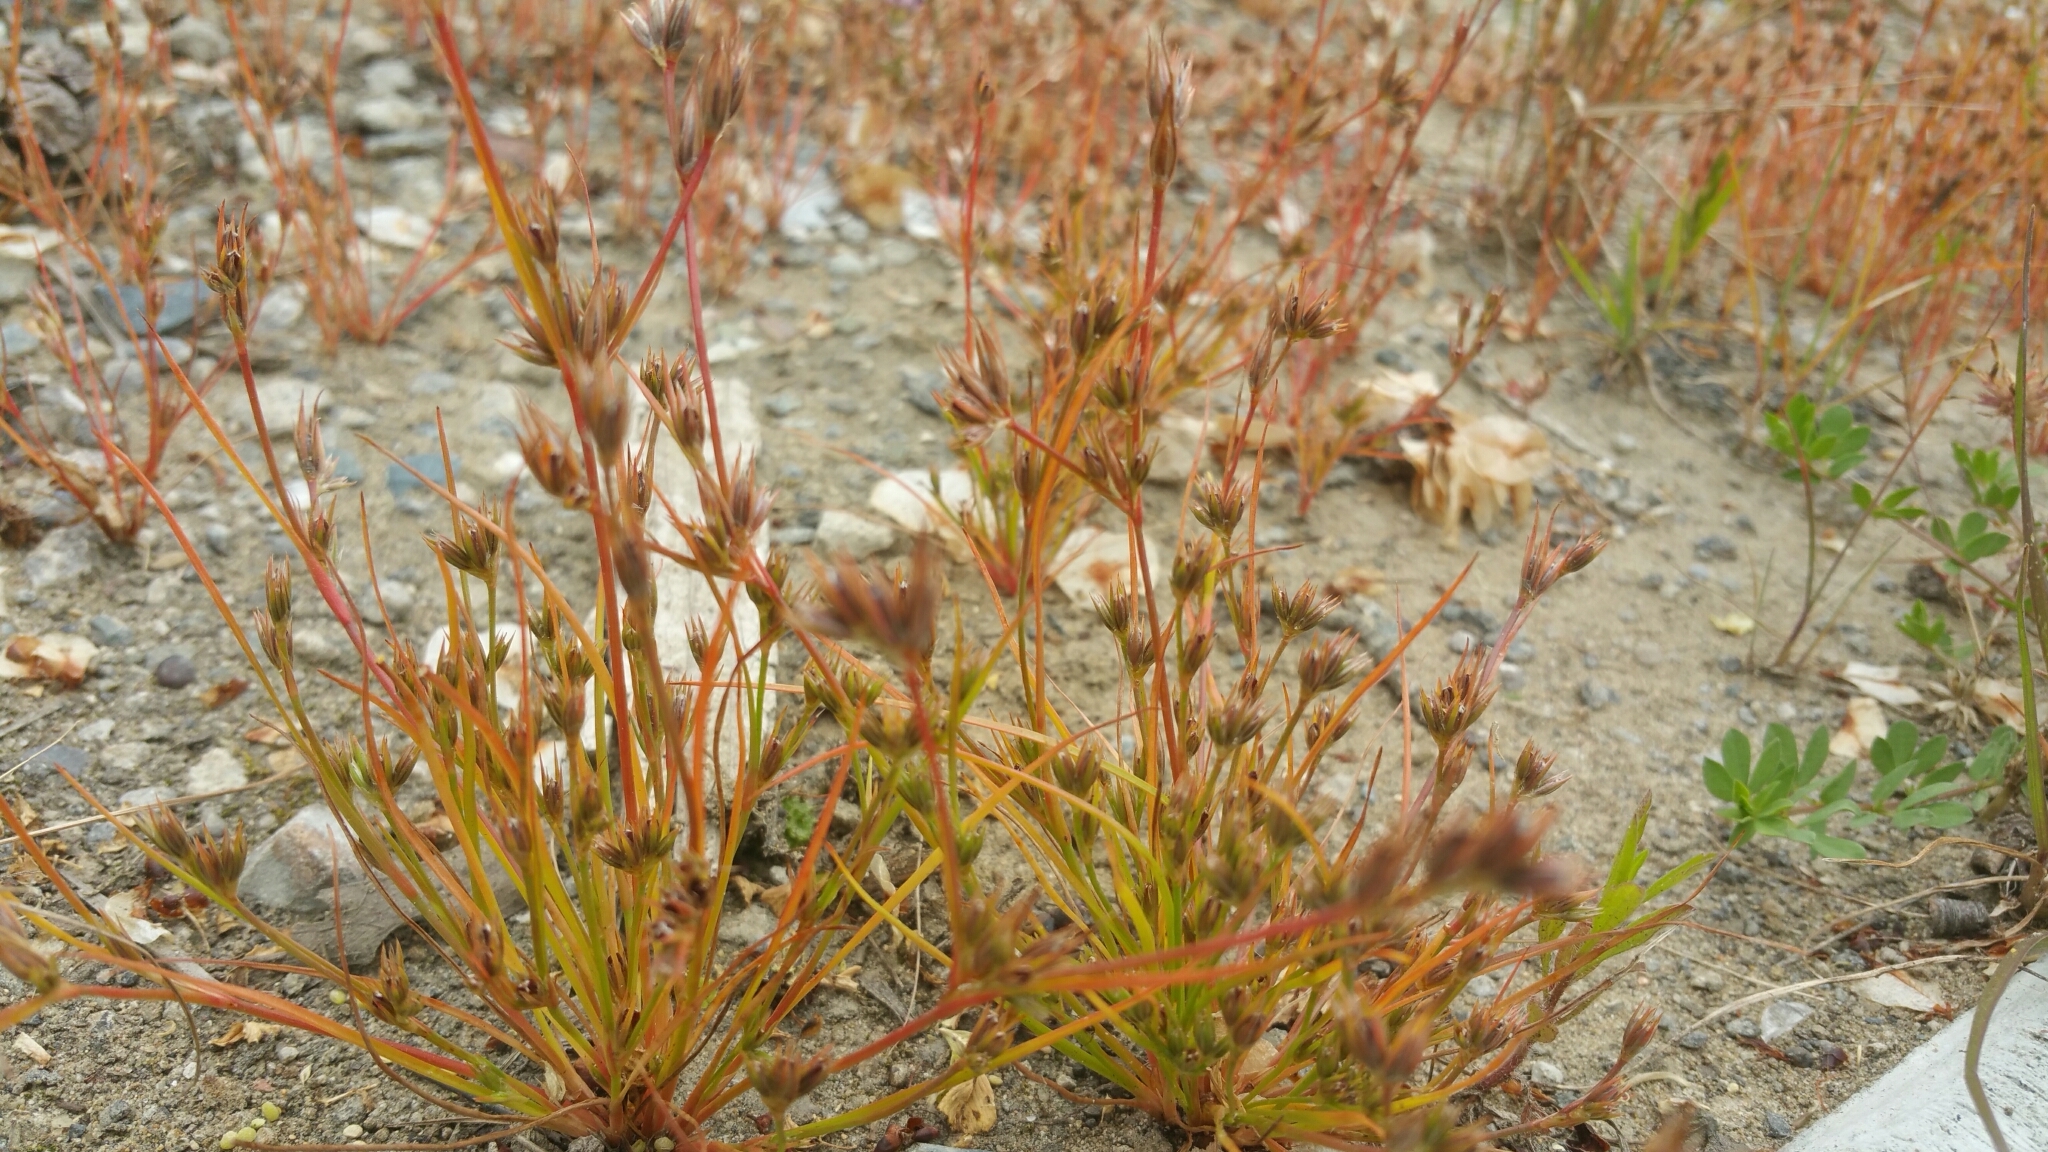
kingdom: Plantae
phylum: Tracheophyta
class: Liliopsida
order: Poales
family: Juncaceae
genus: Juncus
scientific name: Juncus bufonius
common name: Toad rush
